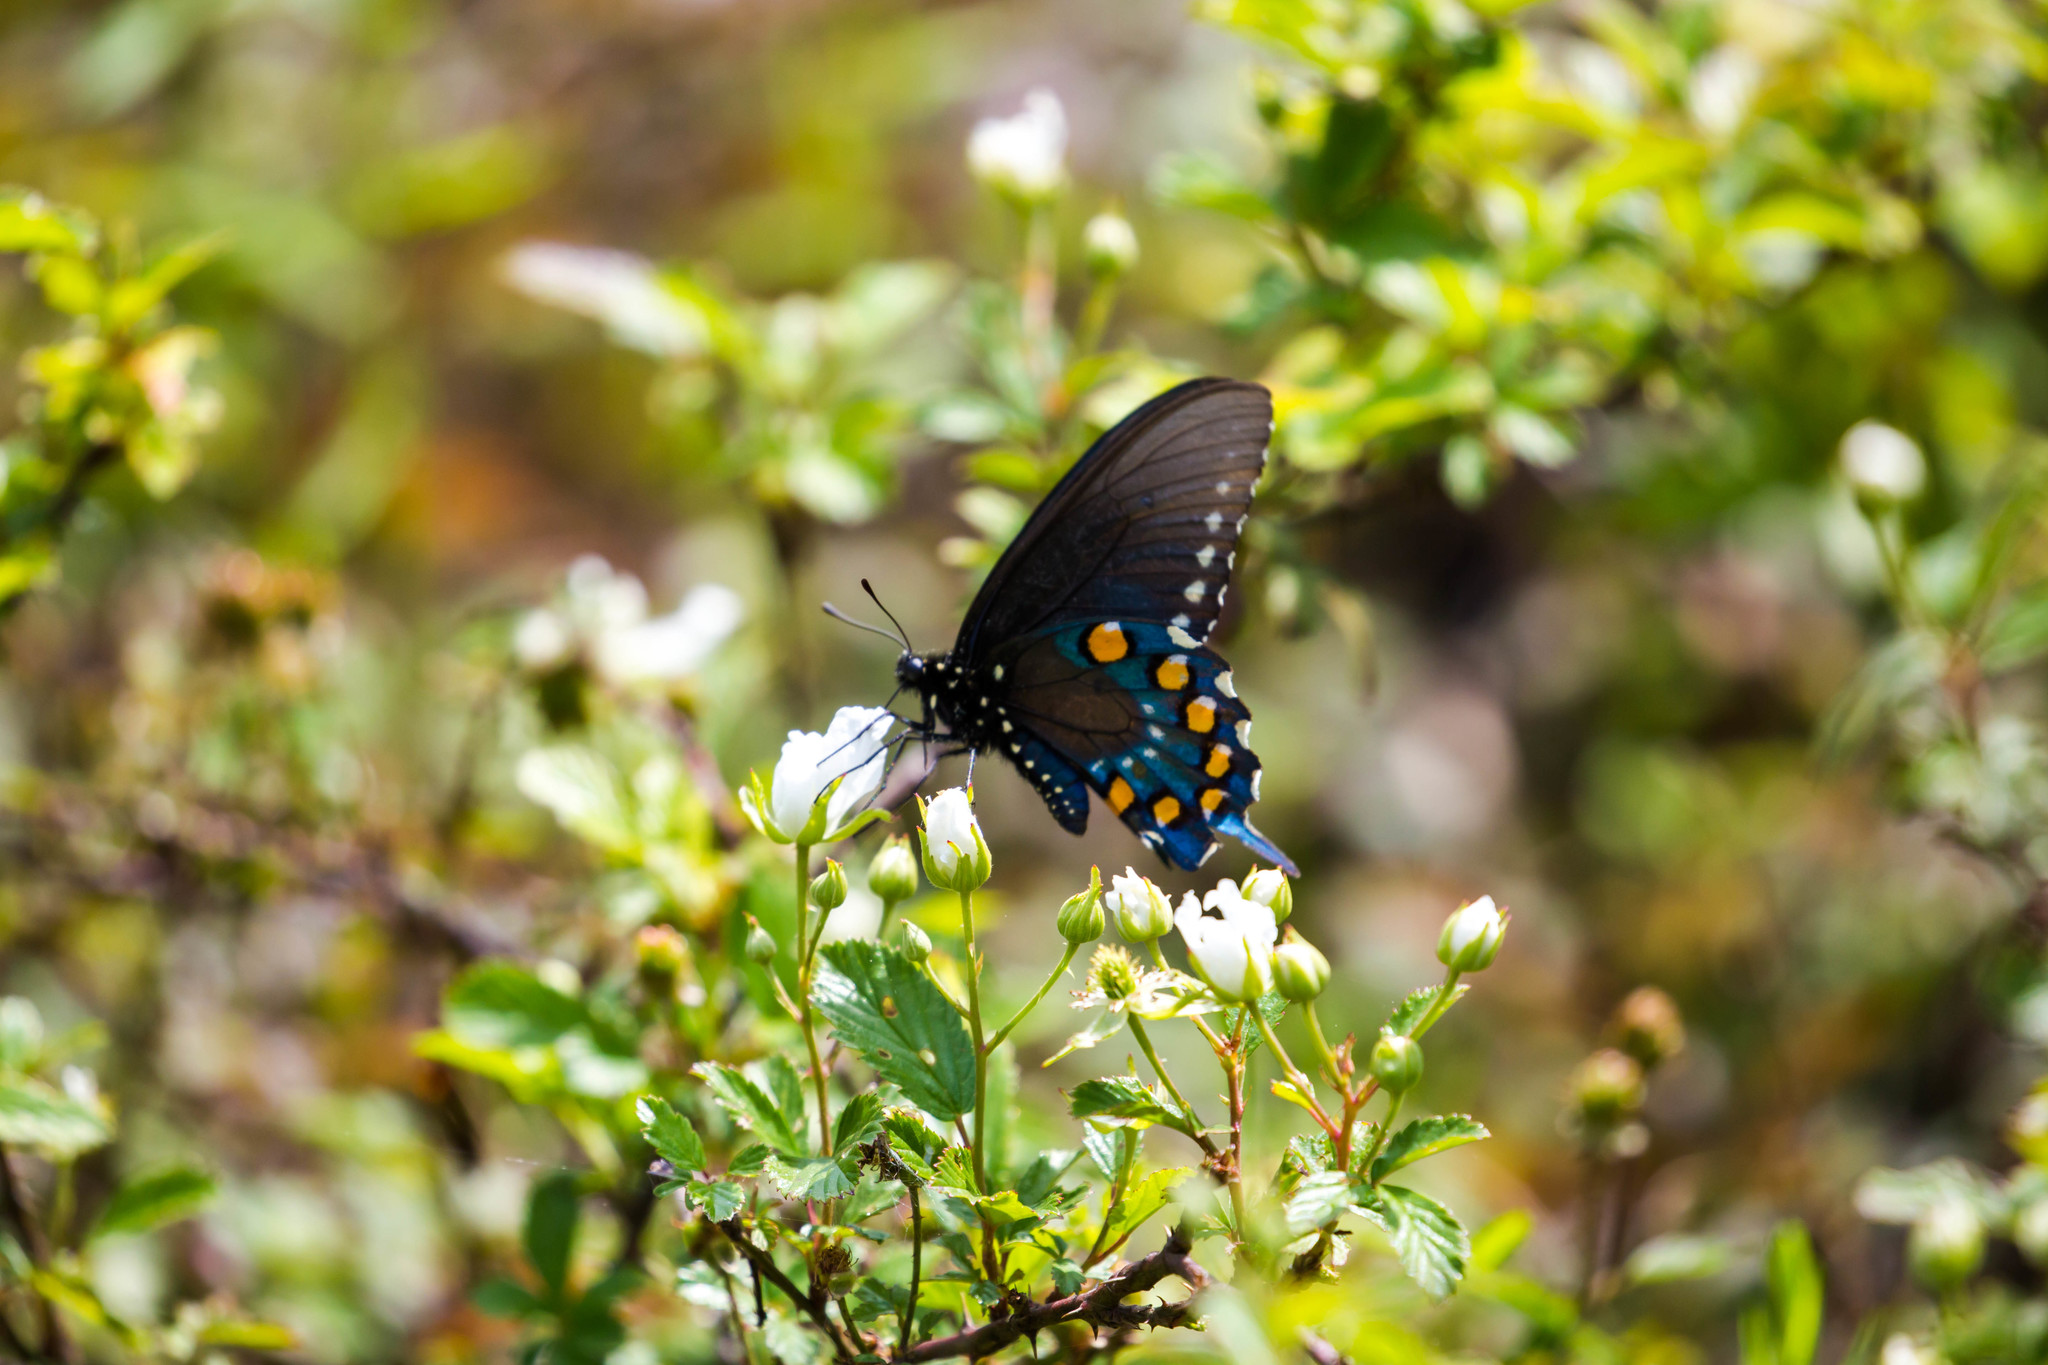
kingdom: Animalia
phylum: Arthropoda
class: Insecta
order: Lepidoptera
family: Papilionidae
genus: Battus
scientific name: Battus philenor
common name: Pipevine swallowtail
